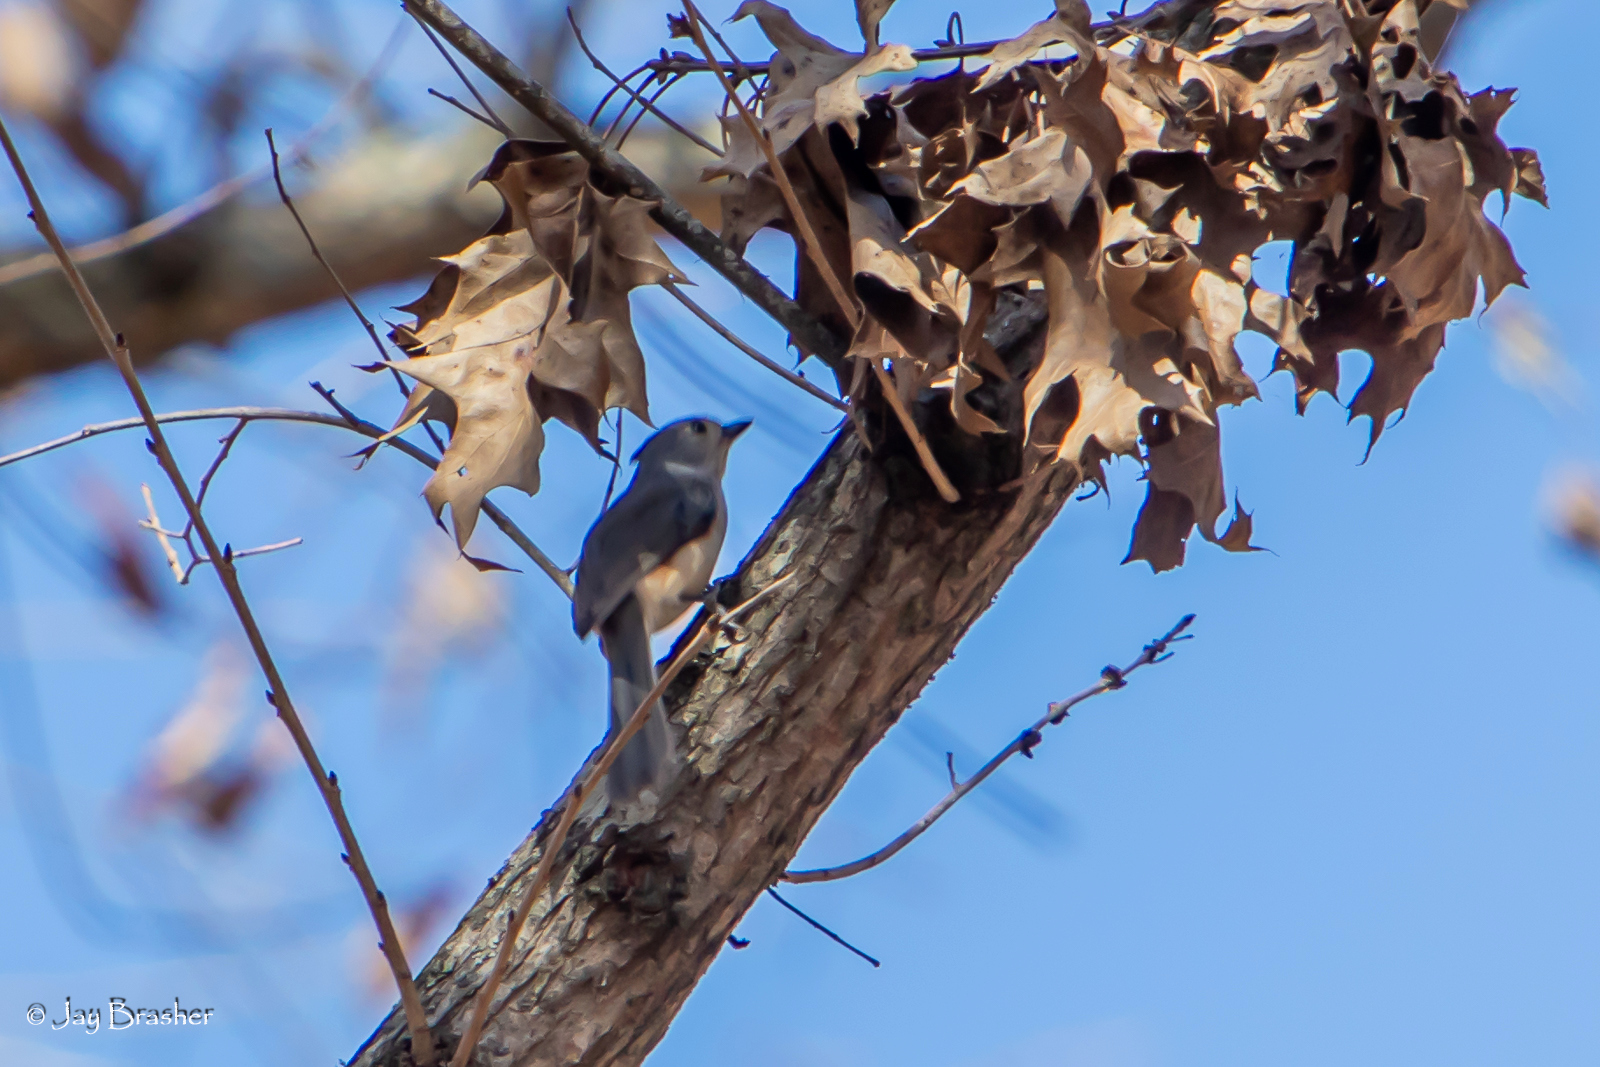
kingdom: Animalia
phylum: Chordata
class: Aves
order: Passeriformes
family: Paridae
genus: Baeolophus
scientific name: Baeolophus bicolor
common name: Tufted titmouse
